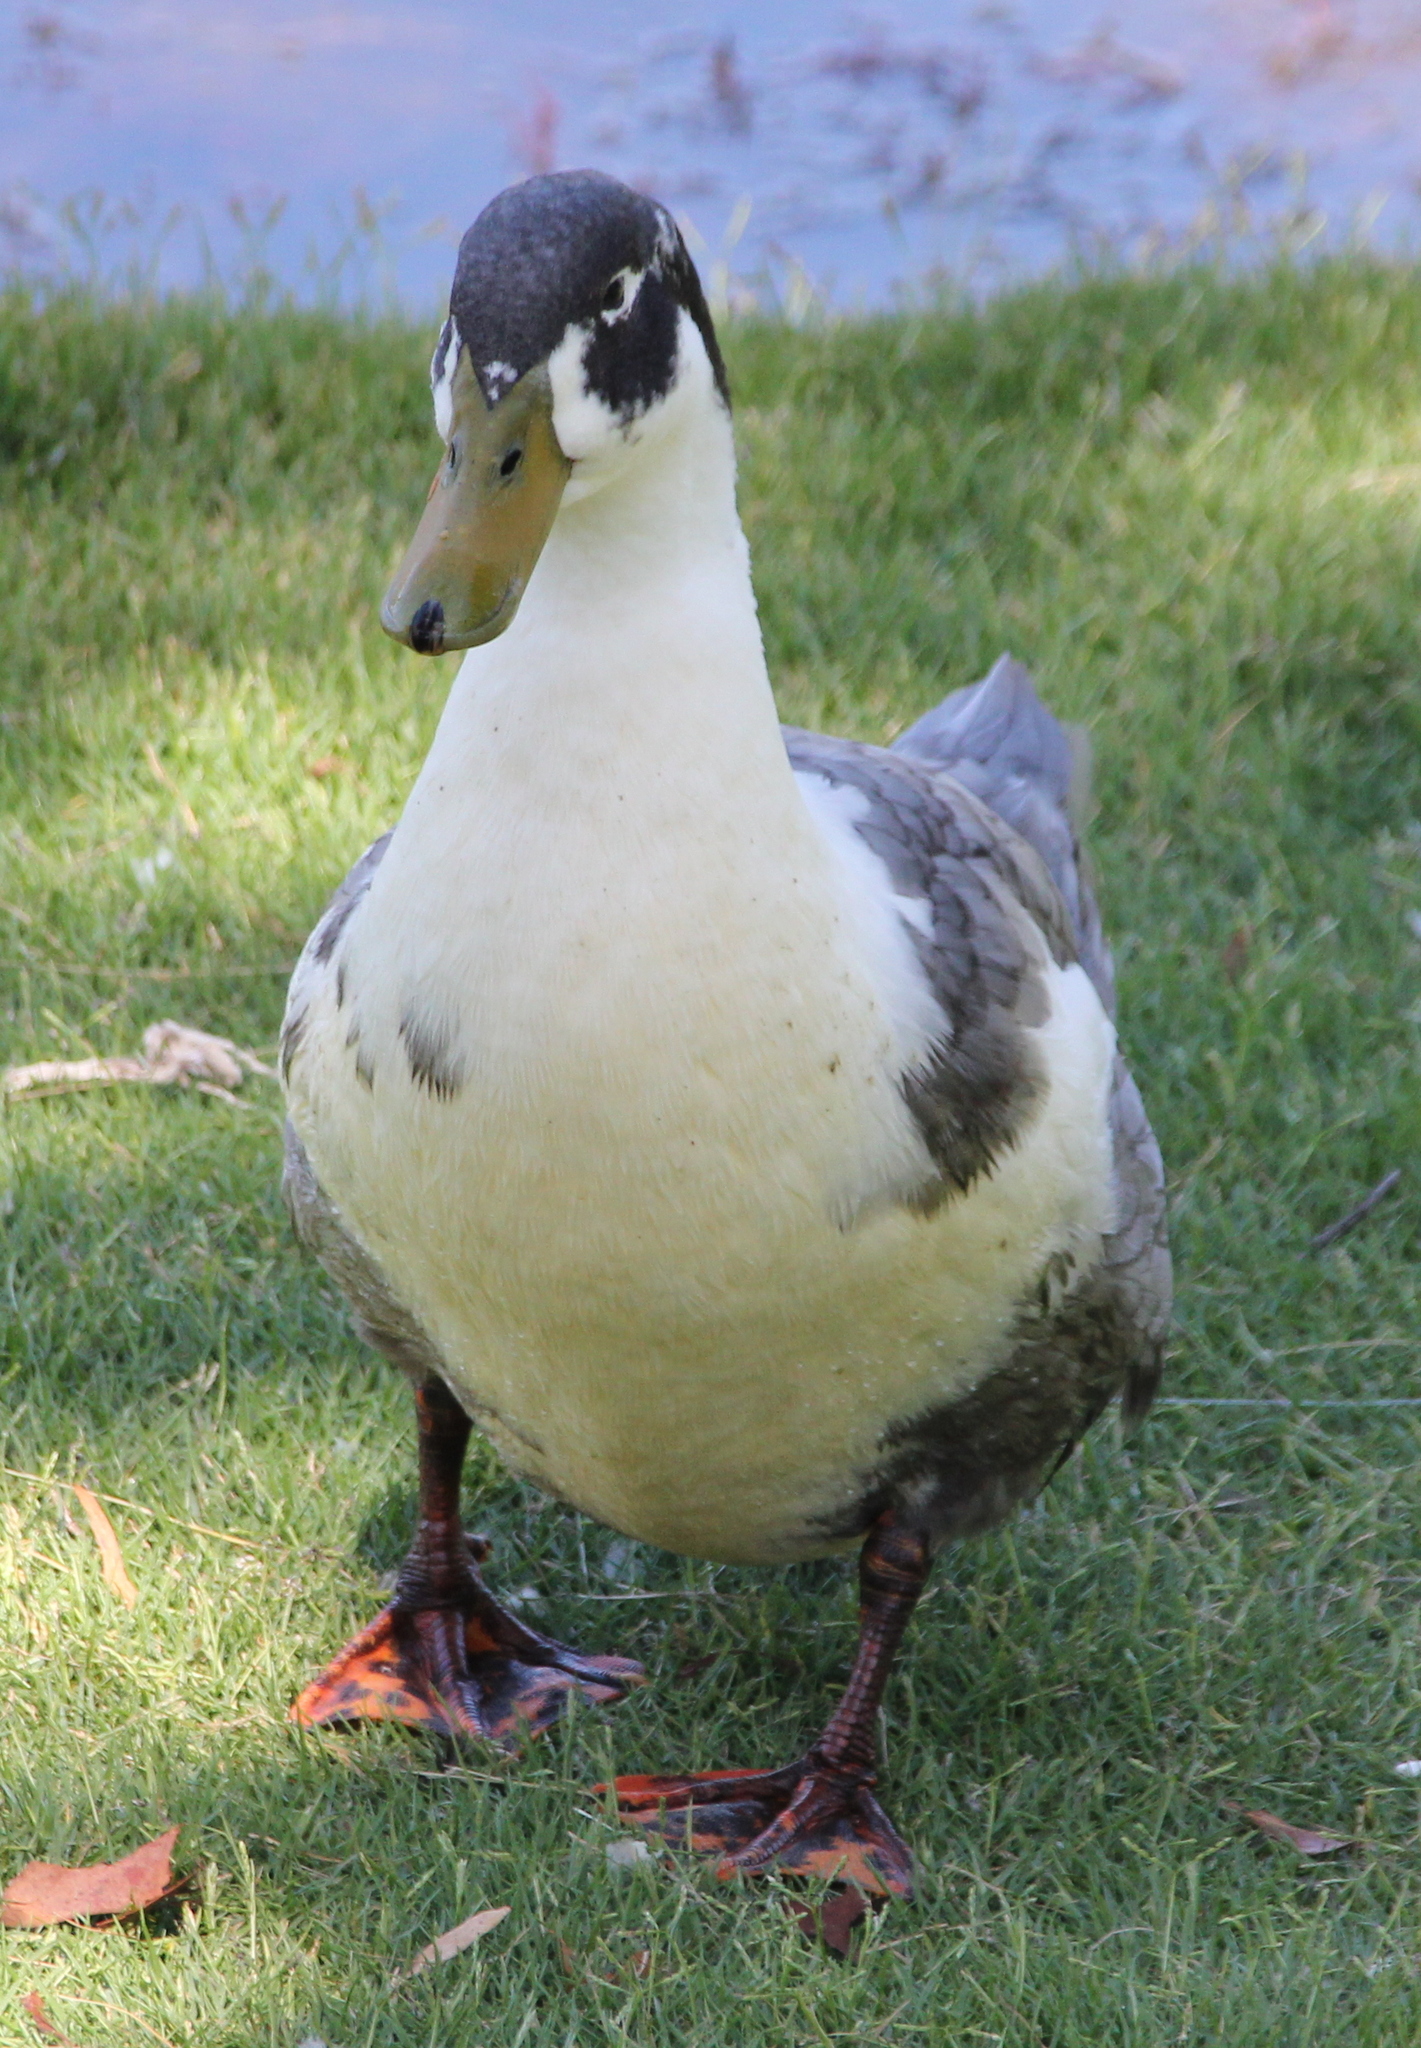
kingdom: Animalia
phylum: Chordata
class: Aves
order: Anseriformes
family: Anatidae
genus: Anas
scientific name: Anas platyrhynchos
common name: Mallard
